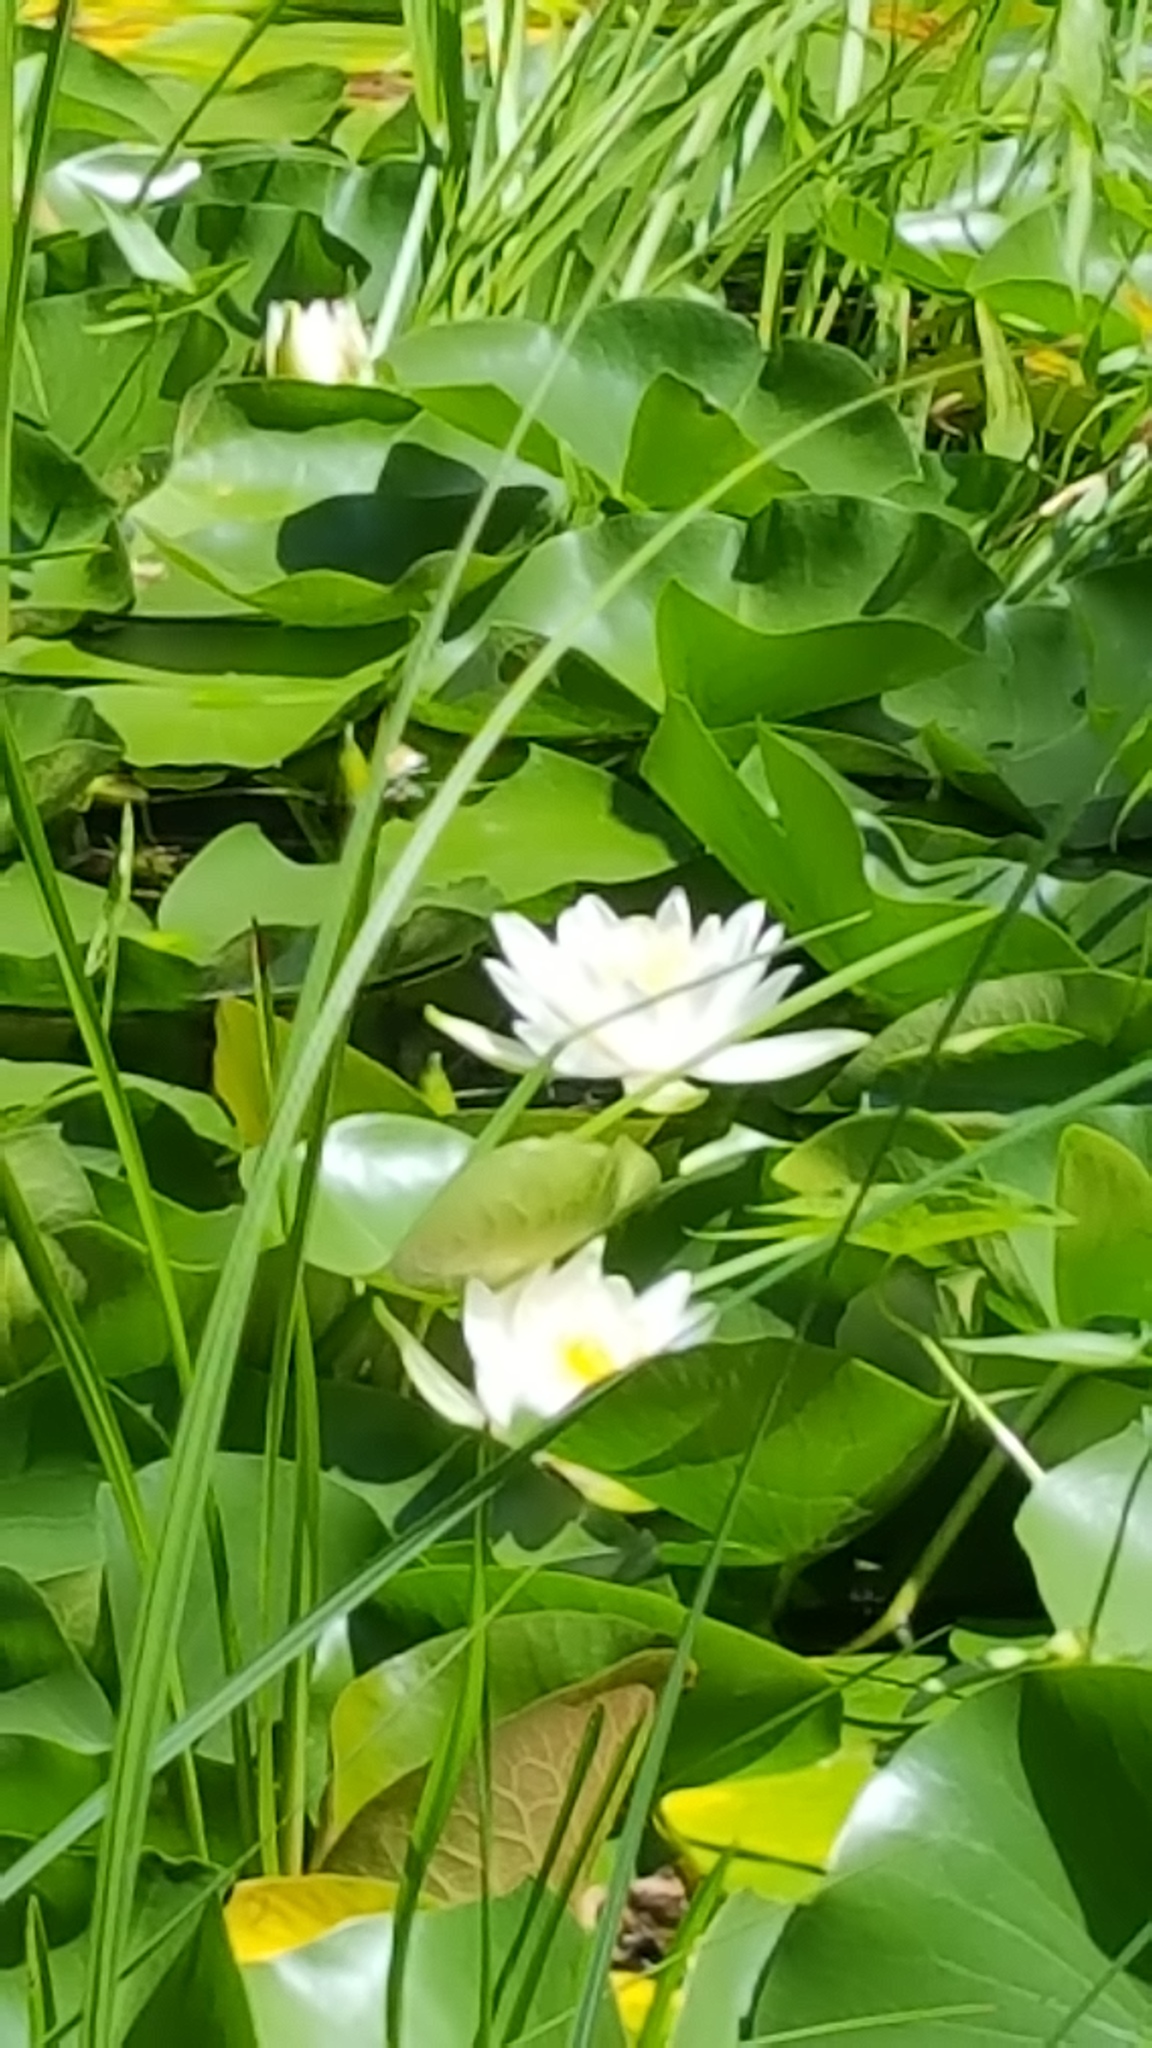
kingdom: Plantae
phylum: Tracheophyta
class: Magnoliopsida
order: Nymphaeales
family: Nymphaeaceae
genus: Nymphaea
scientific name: Nymphaea odorata
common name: Fragrant water-lily
